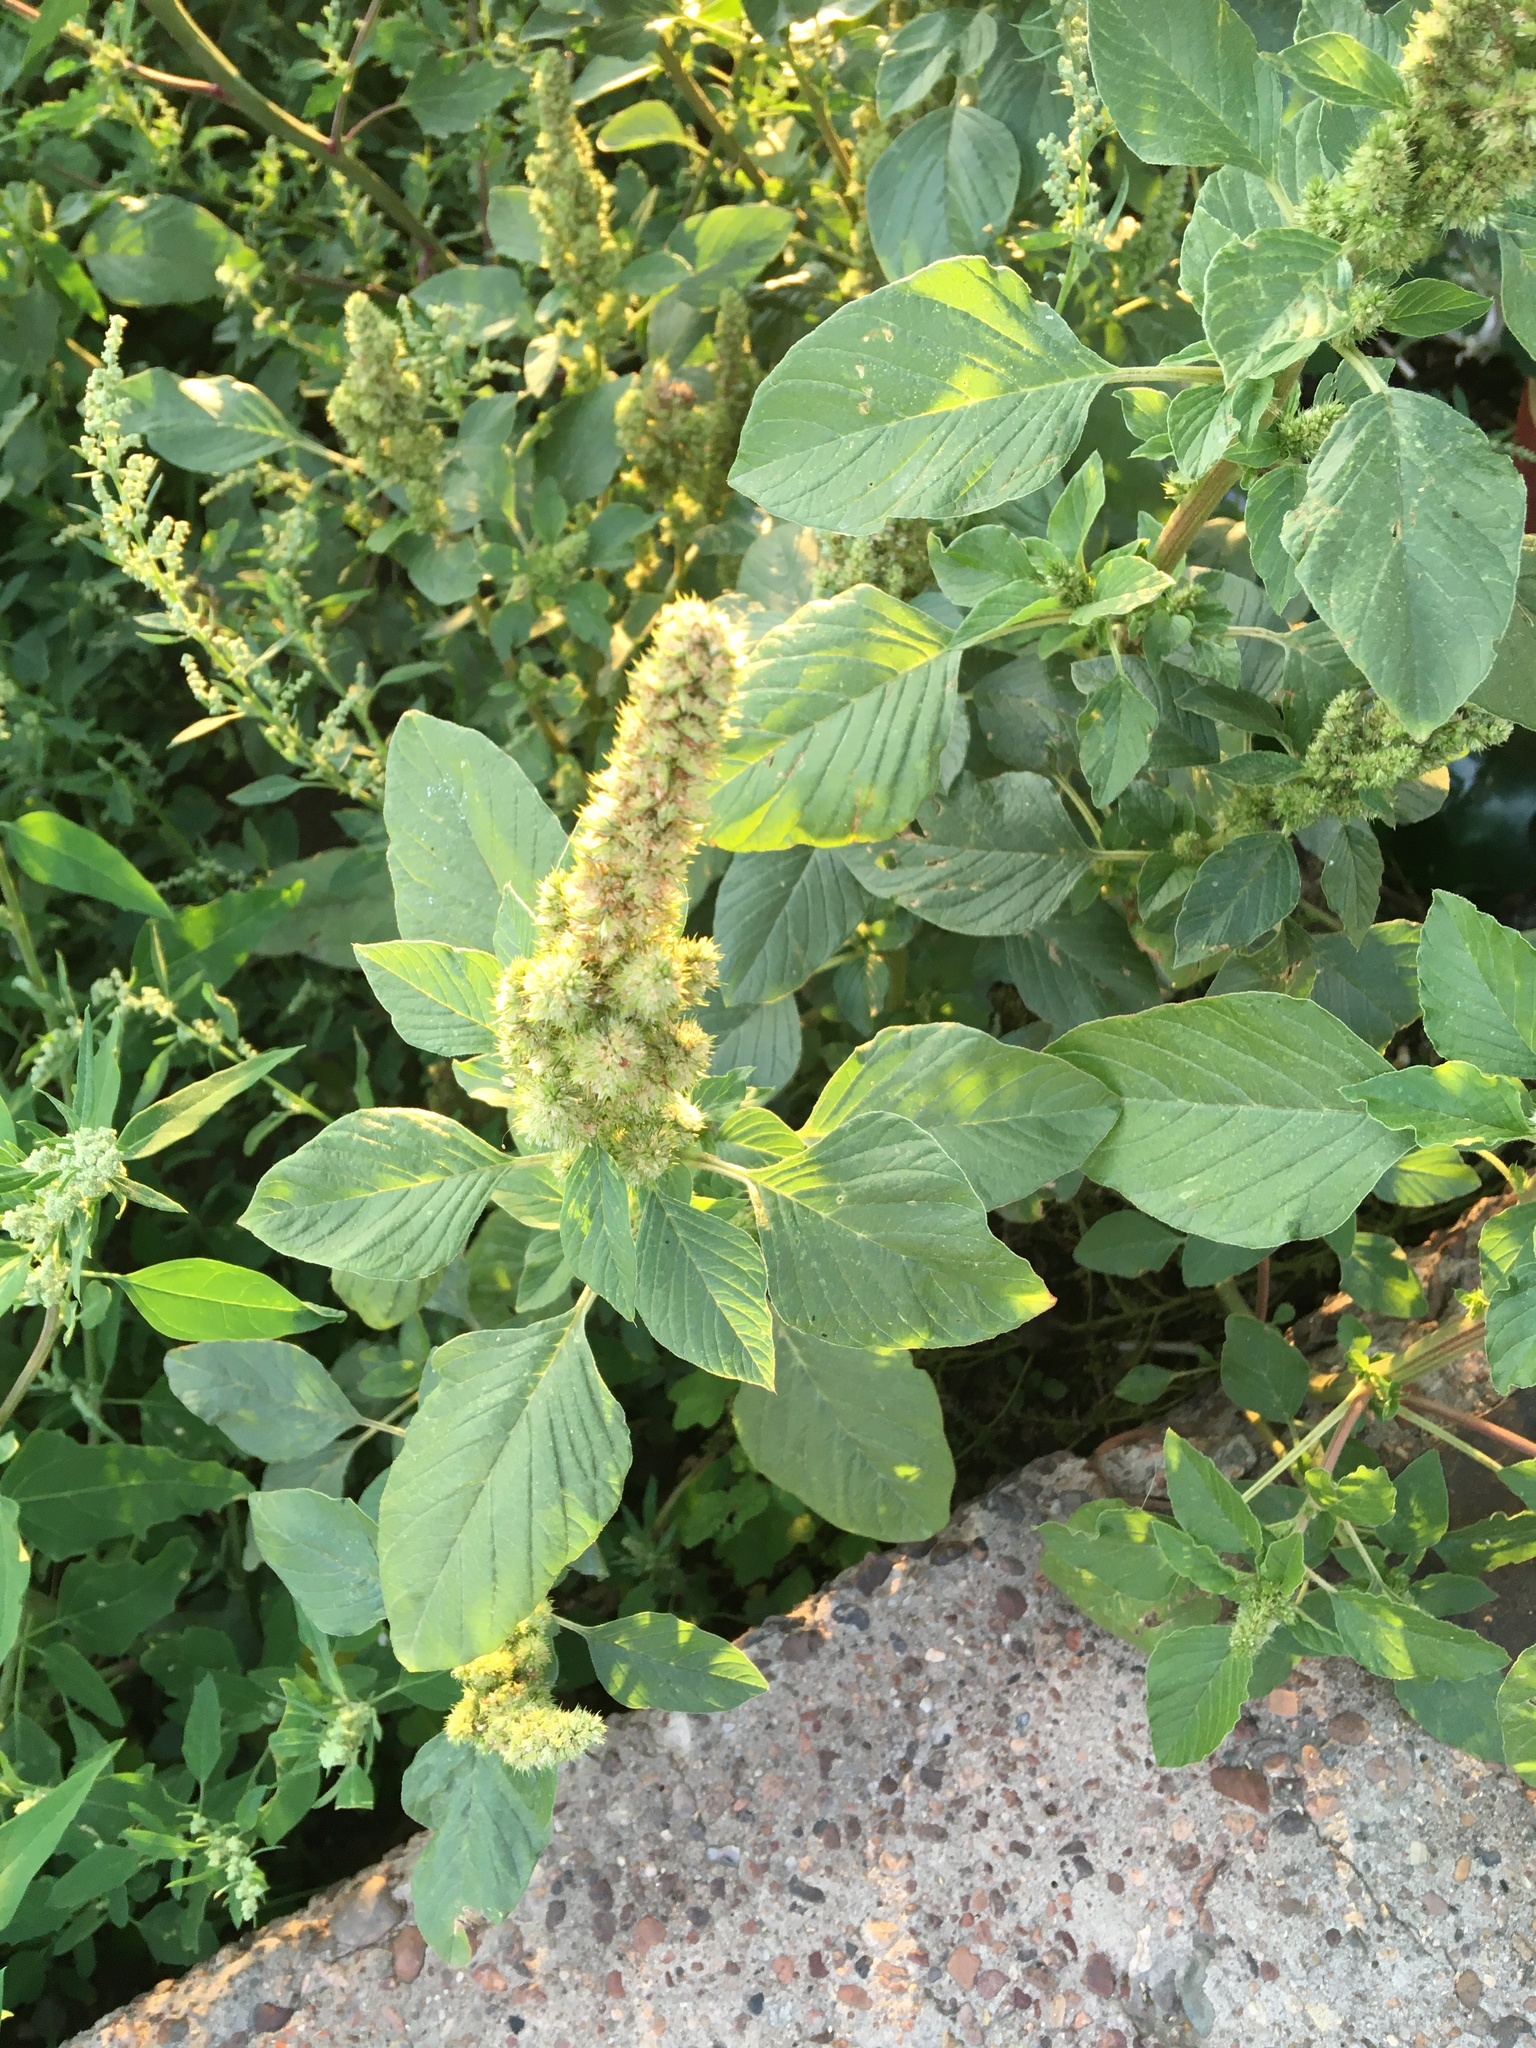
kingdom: Plantae
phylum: Tracheophyta
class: Magnoliopsida
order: Caryophyllales
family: Amaranthaceae
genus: Amaranthus
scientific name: Amaranthus retroflexus
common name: Redroot amaranth
